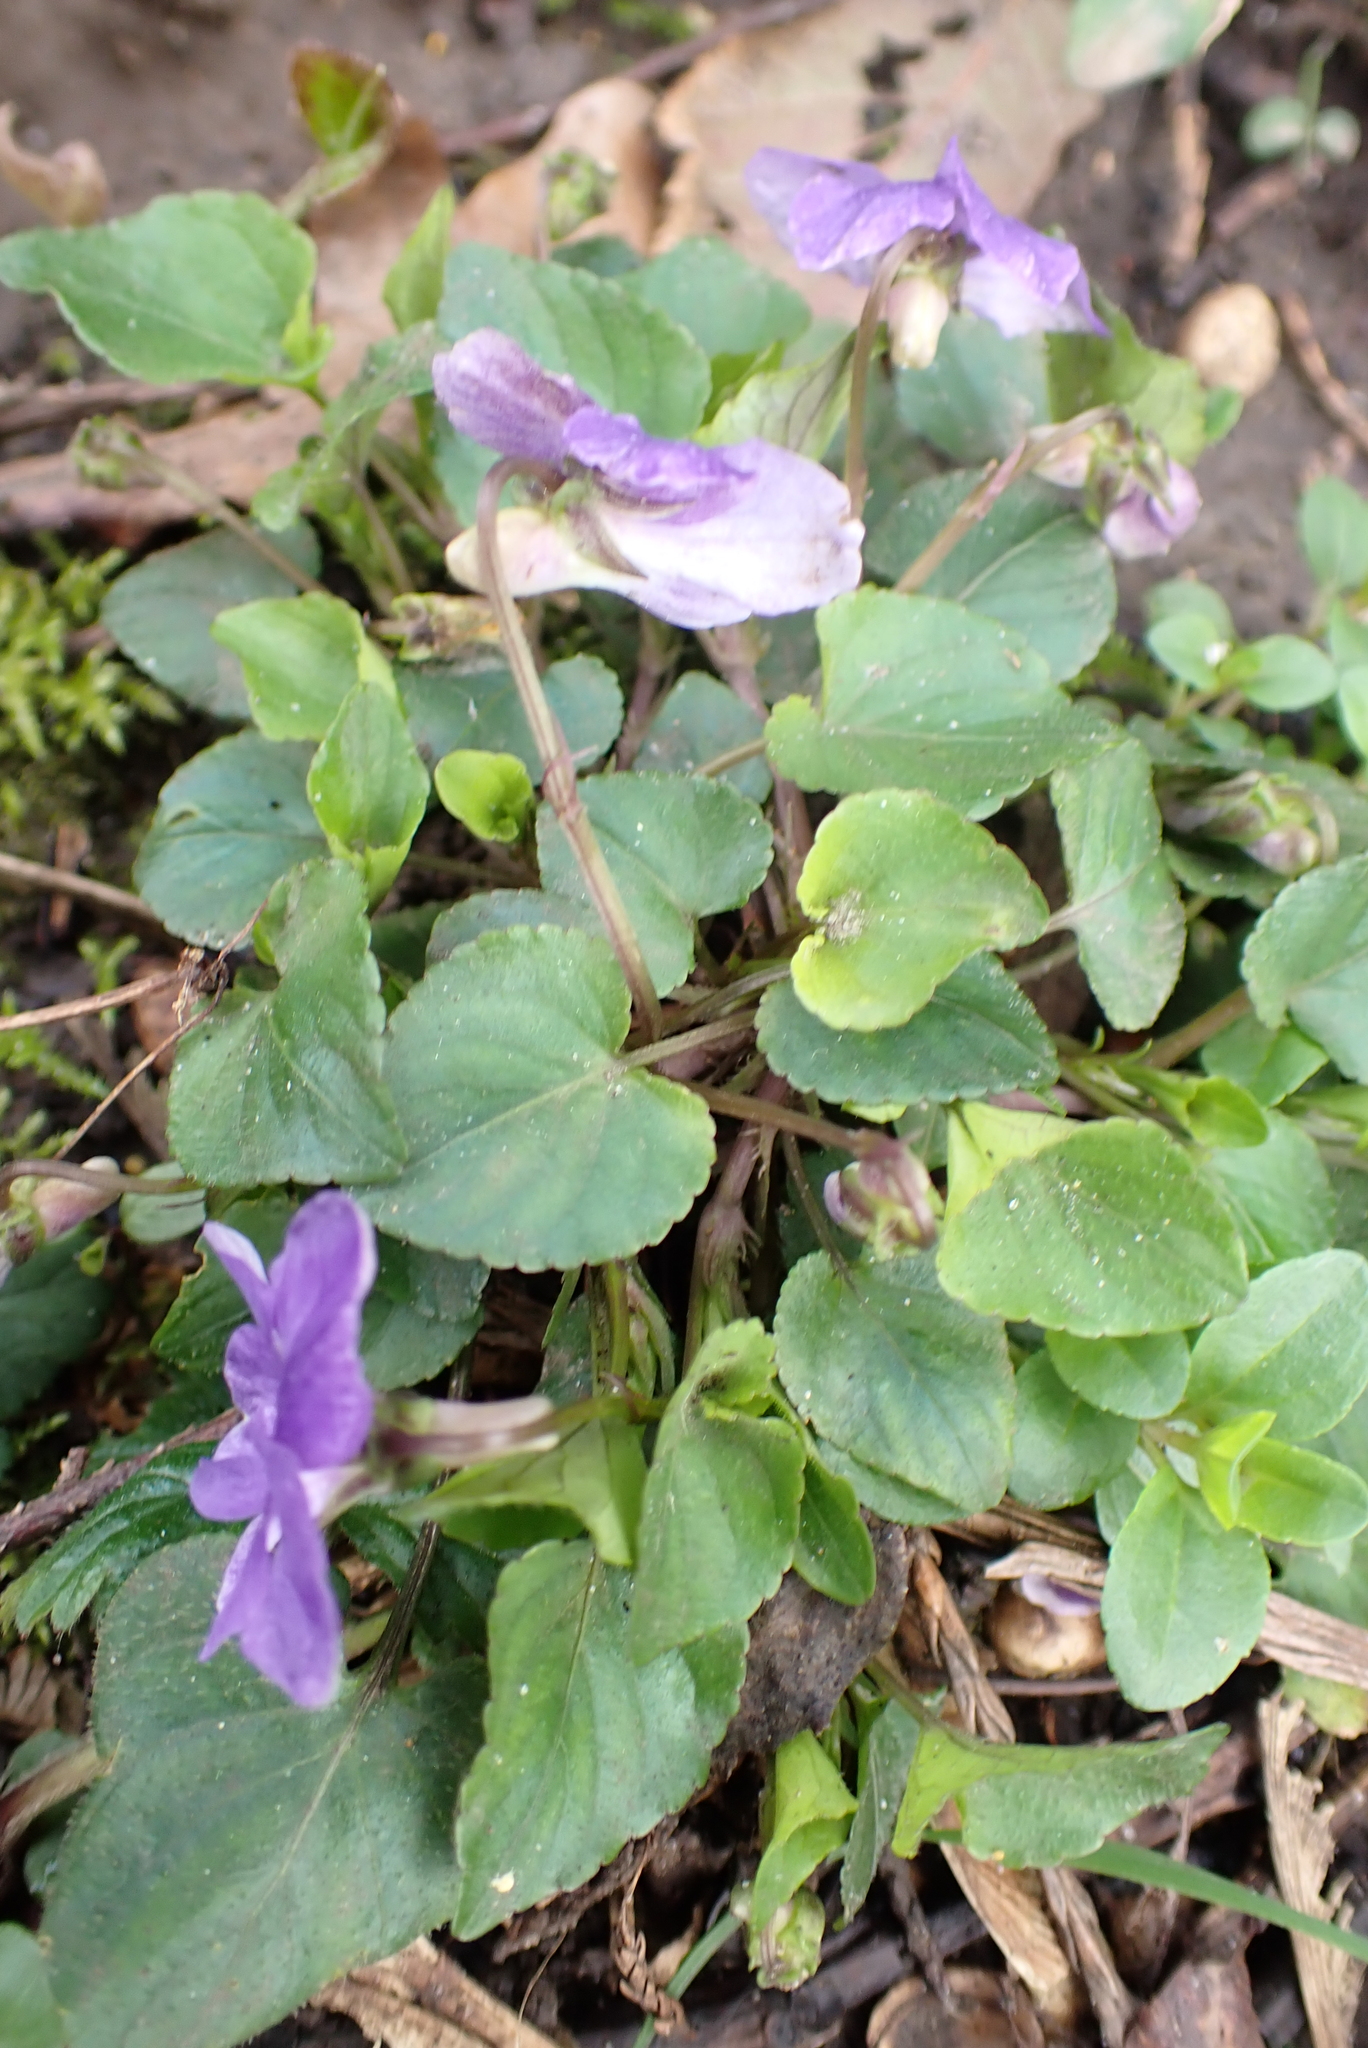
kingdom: Plantae
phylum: Tracheophyta
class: Magnoliopsida
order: Malpighiales
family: Violaceae
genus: Viola
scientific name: Viola riviniana
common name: Common dog-violet
